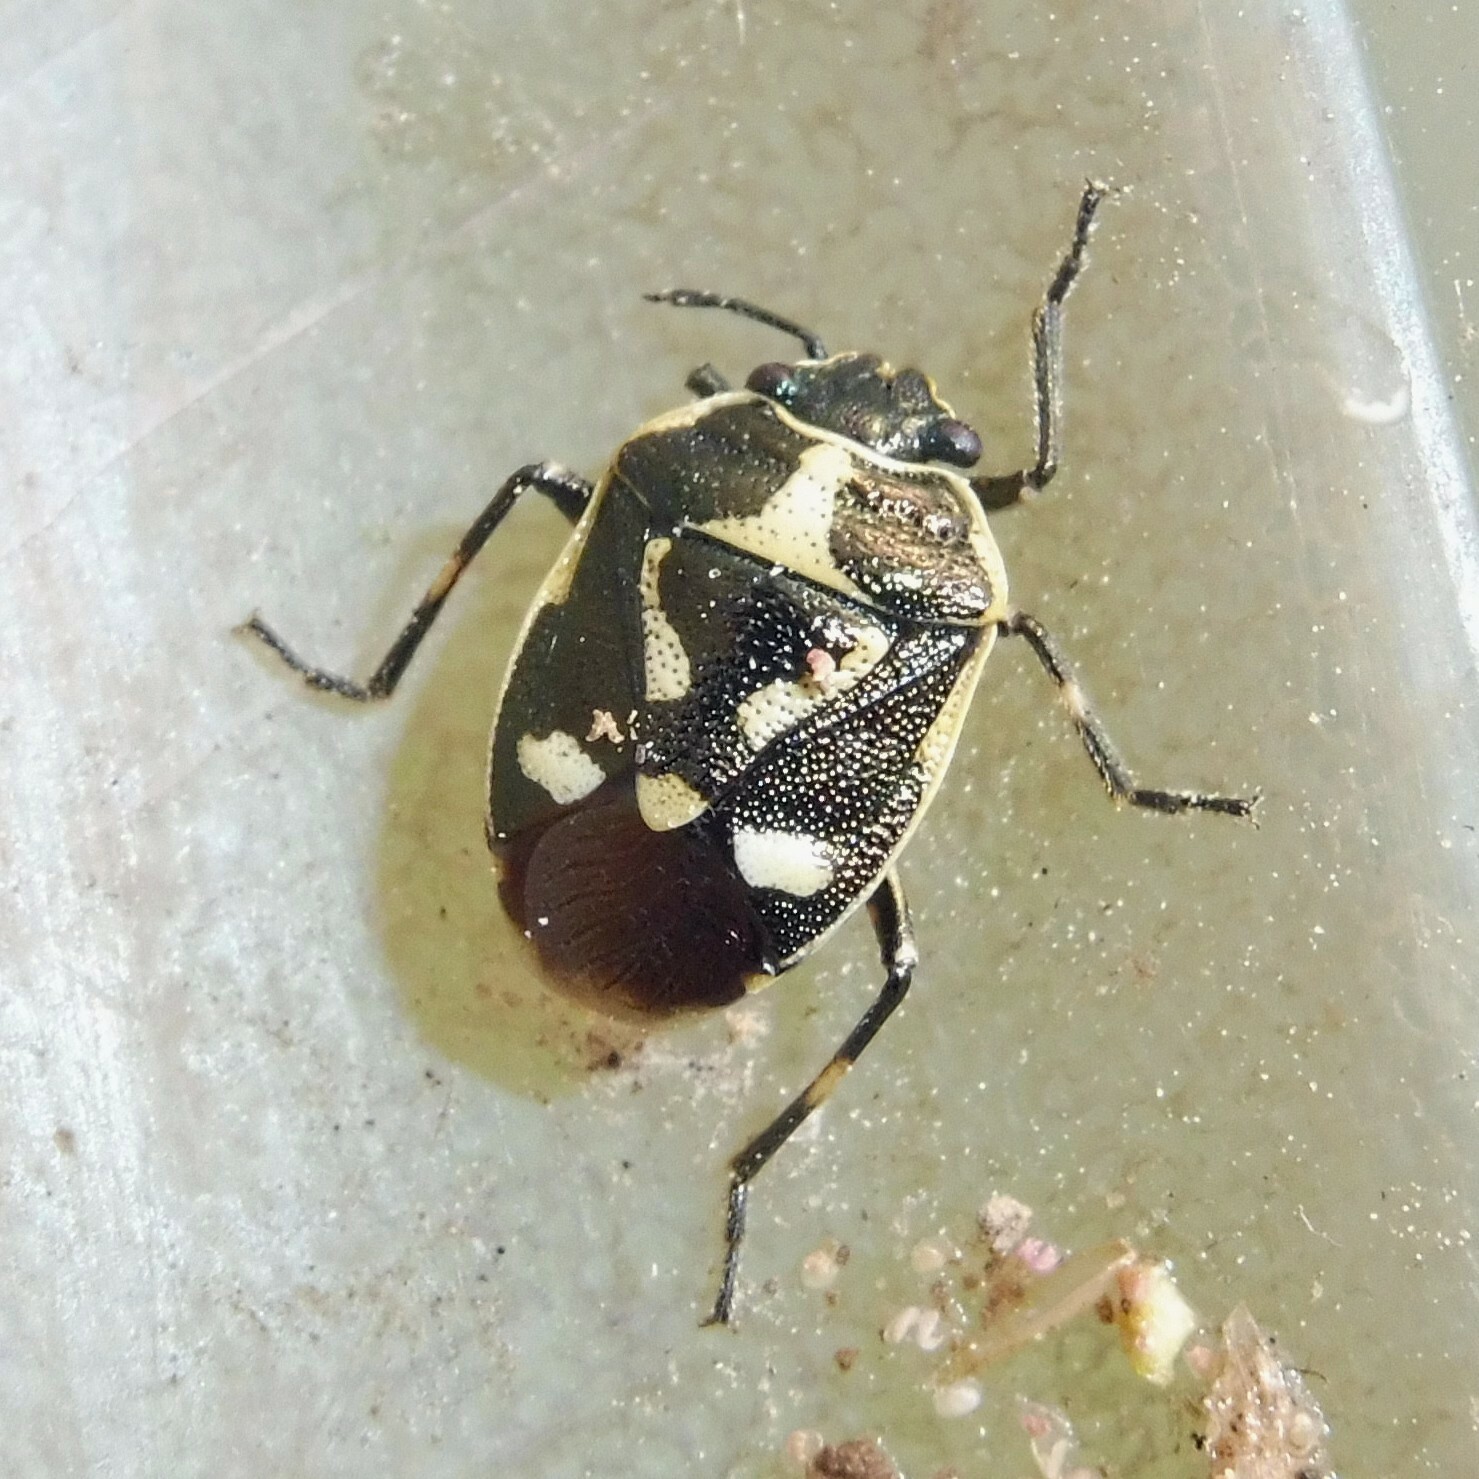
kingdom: Animalia
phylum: Arthropoda
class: Insecta
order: Hemiptera
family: Pentatomidae
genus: Eurydema
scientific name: Eurydema oleracea
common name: Cabbage bug
